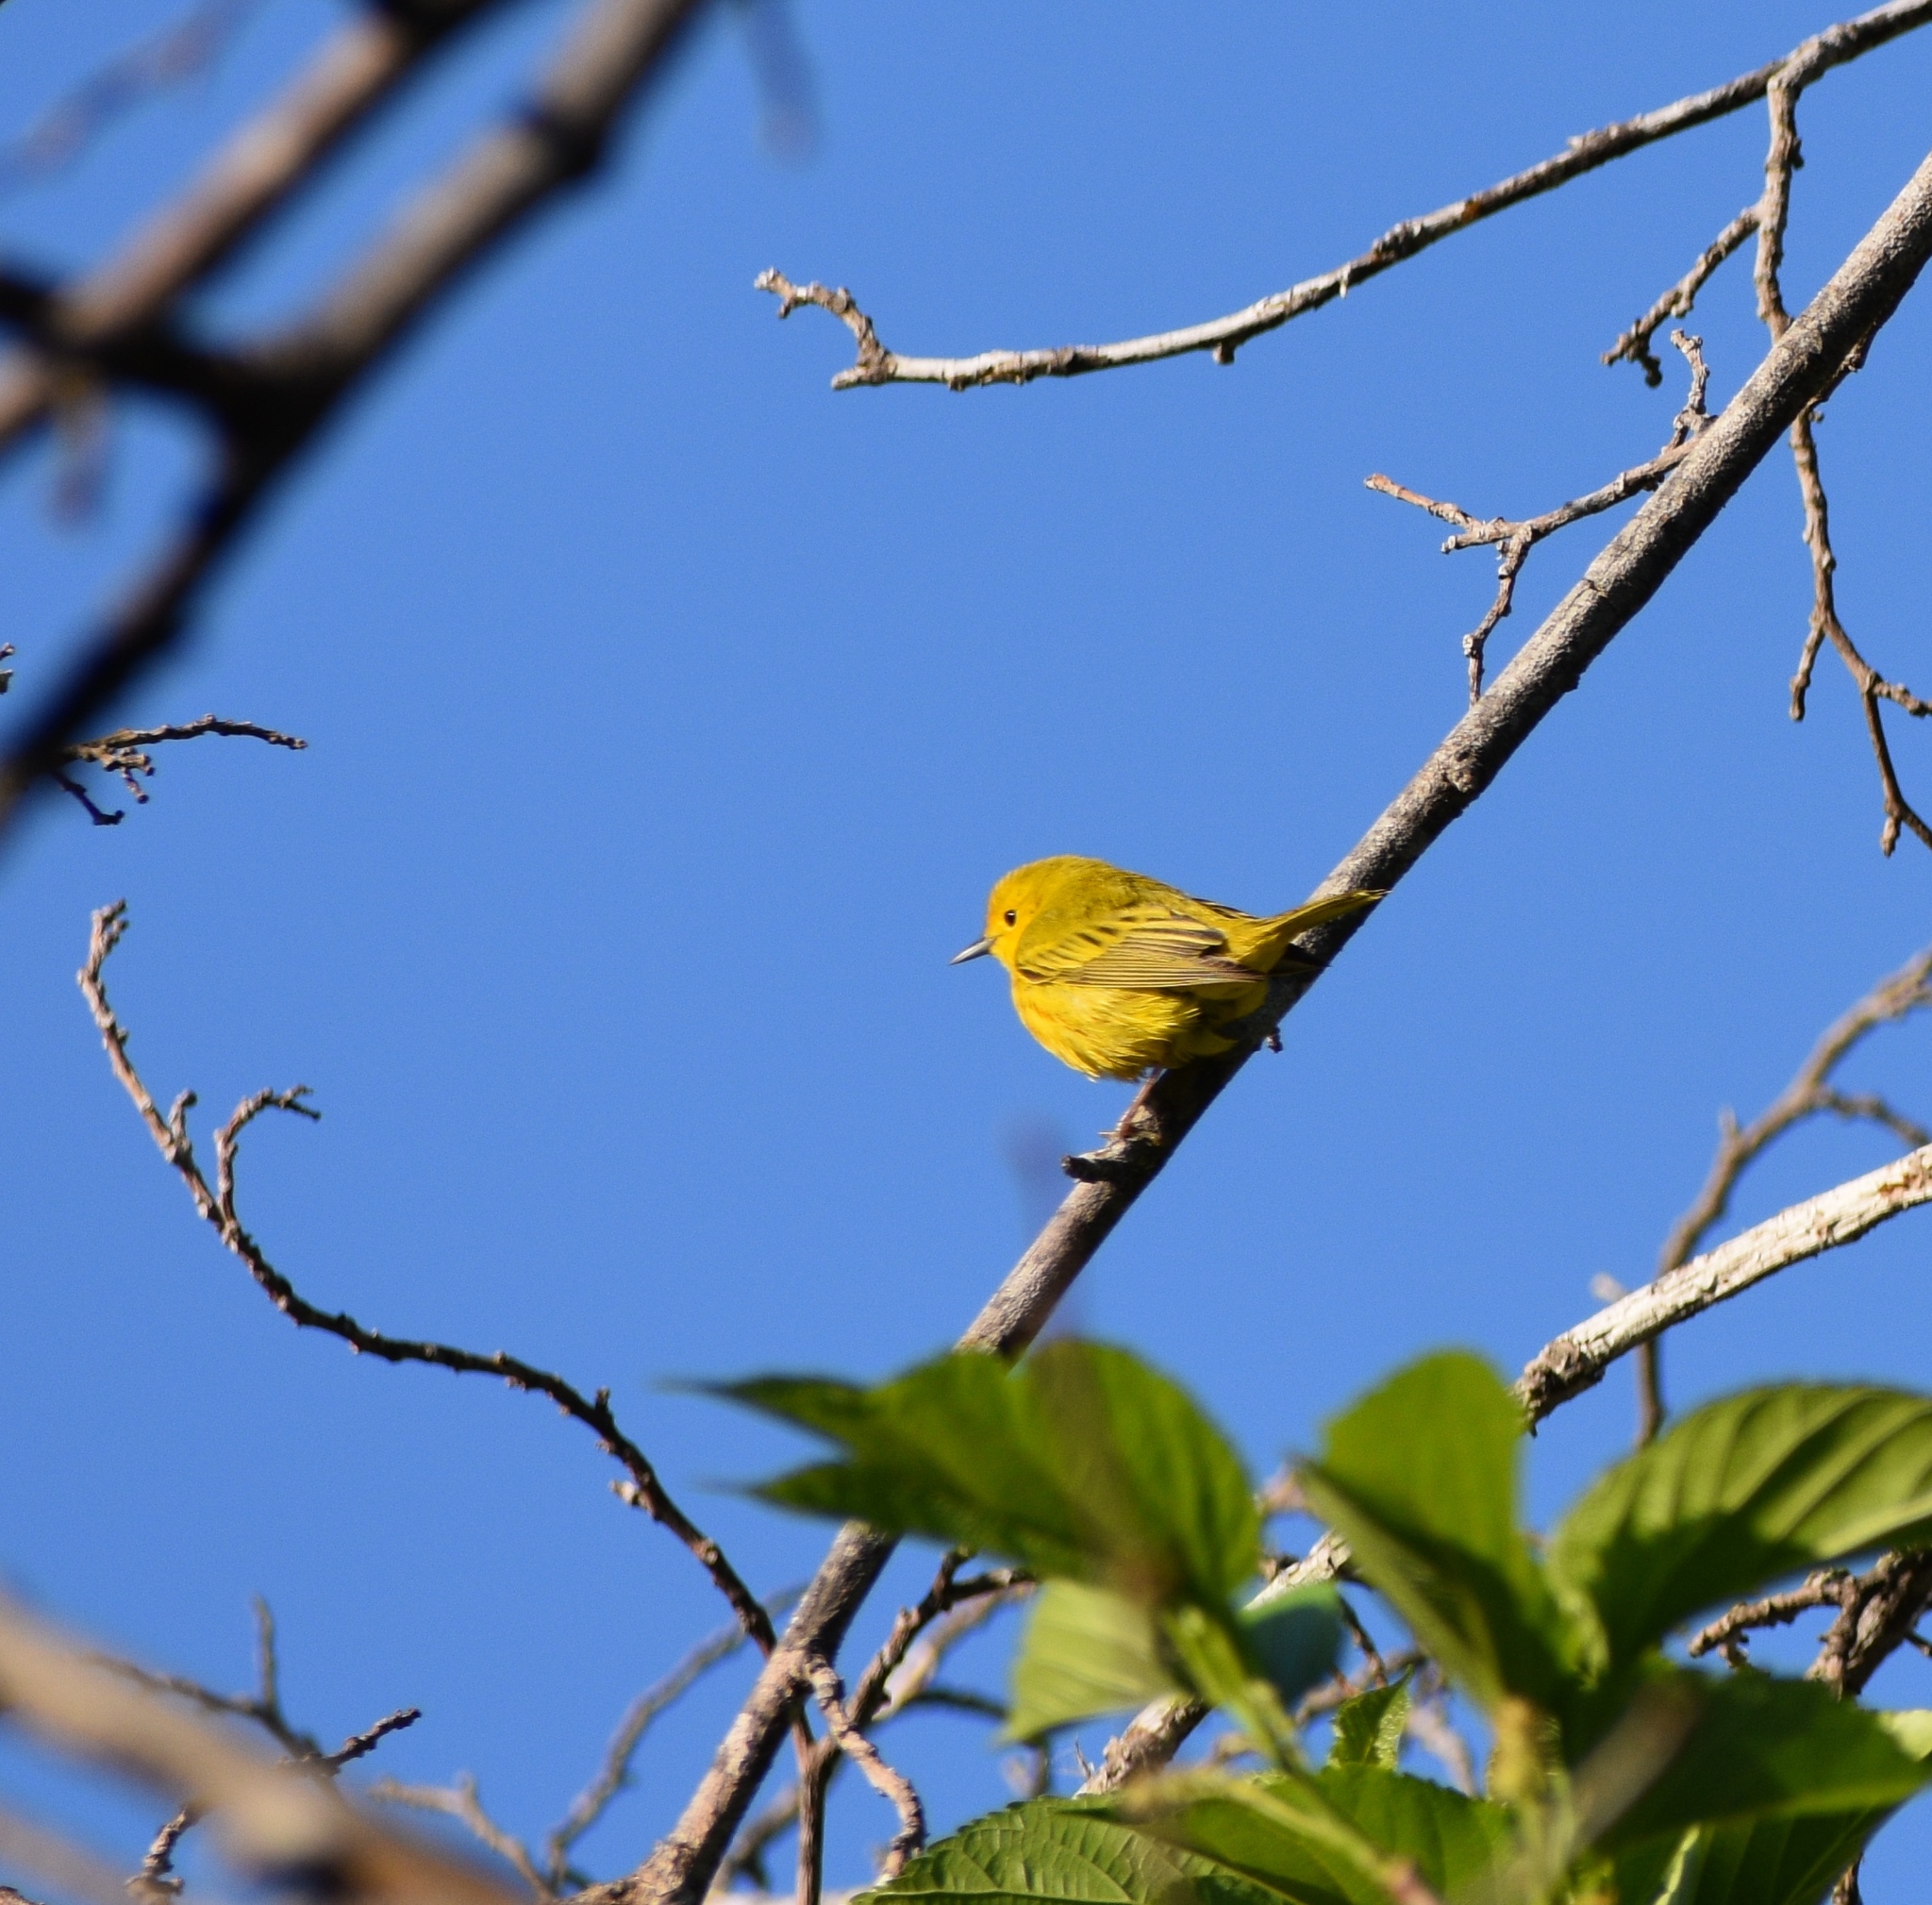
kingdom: Animalia
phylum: Chordata
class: Aves
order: Passeriformes
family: Parulidae
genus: Setophaga
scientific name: Setophaga petechia
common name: Yellow warbler
